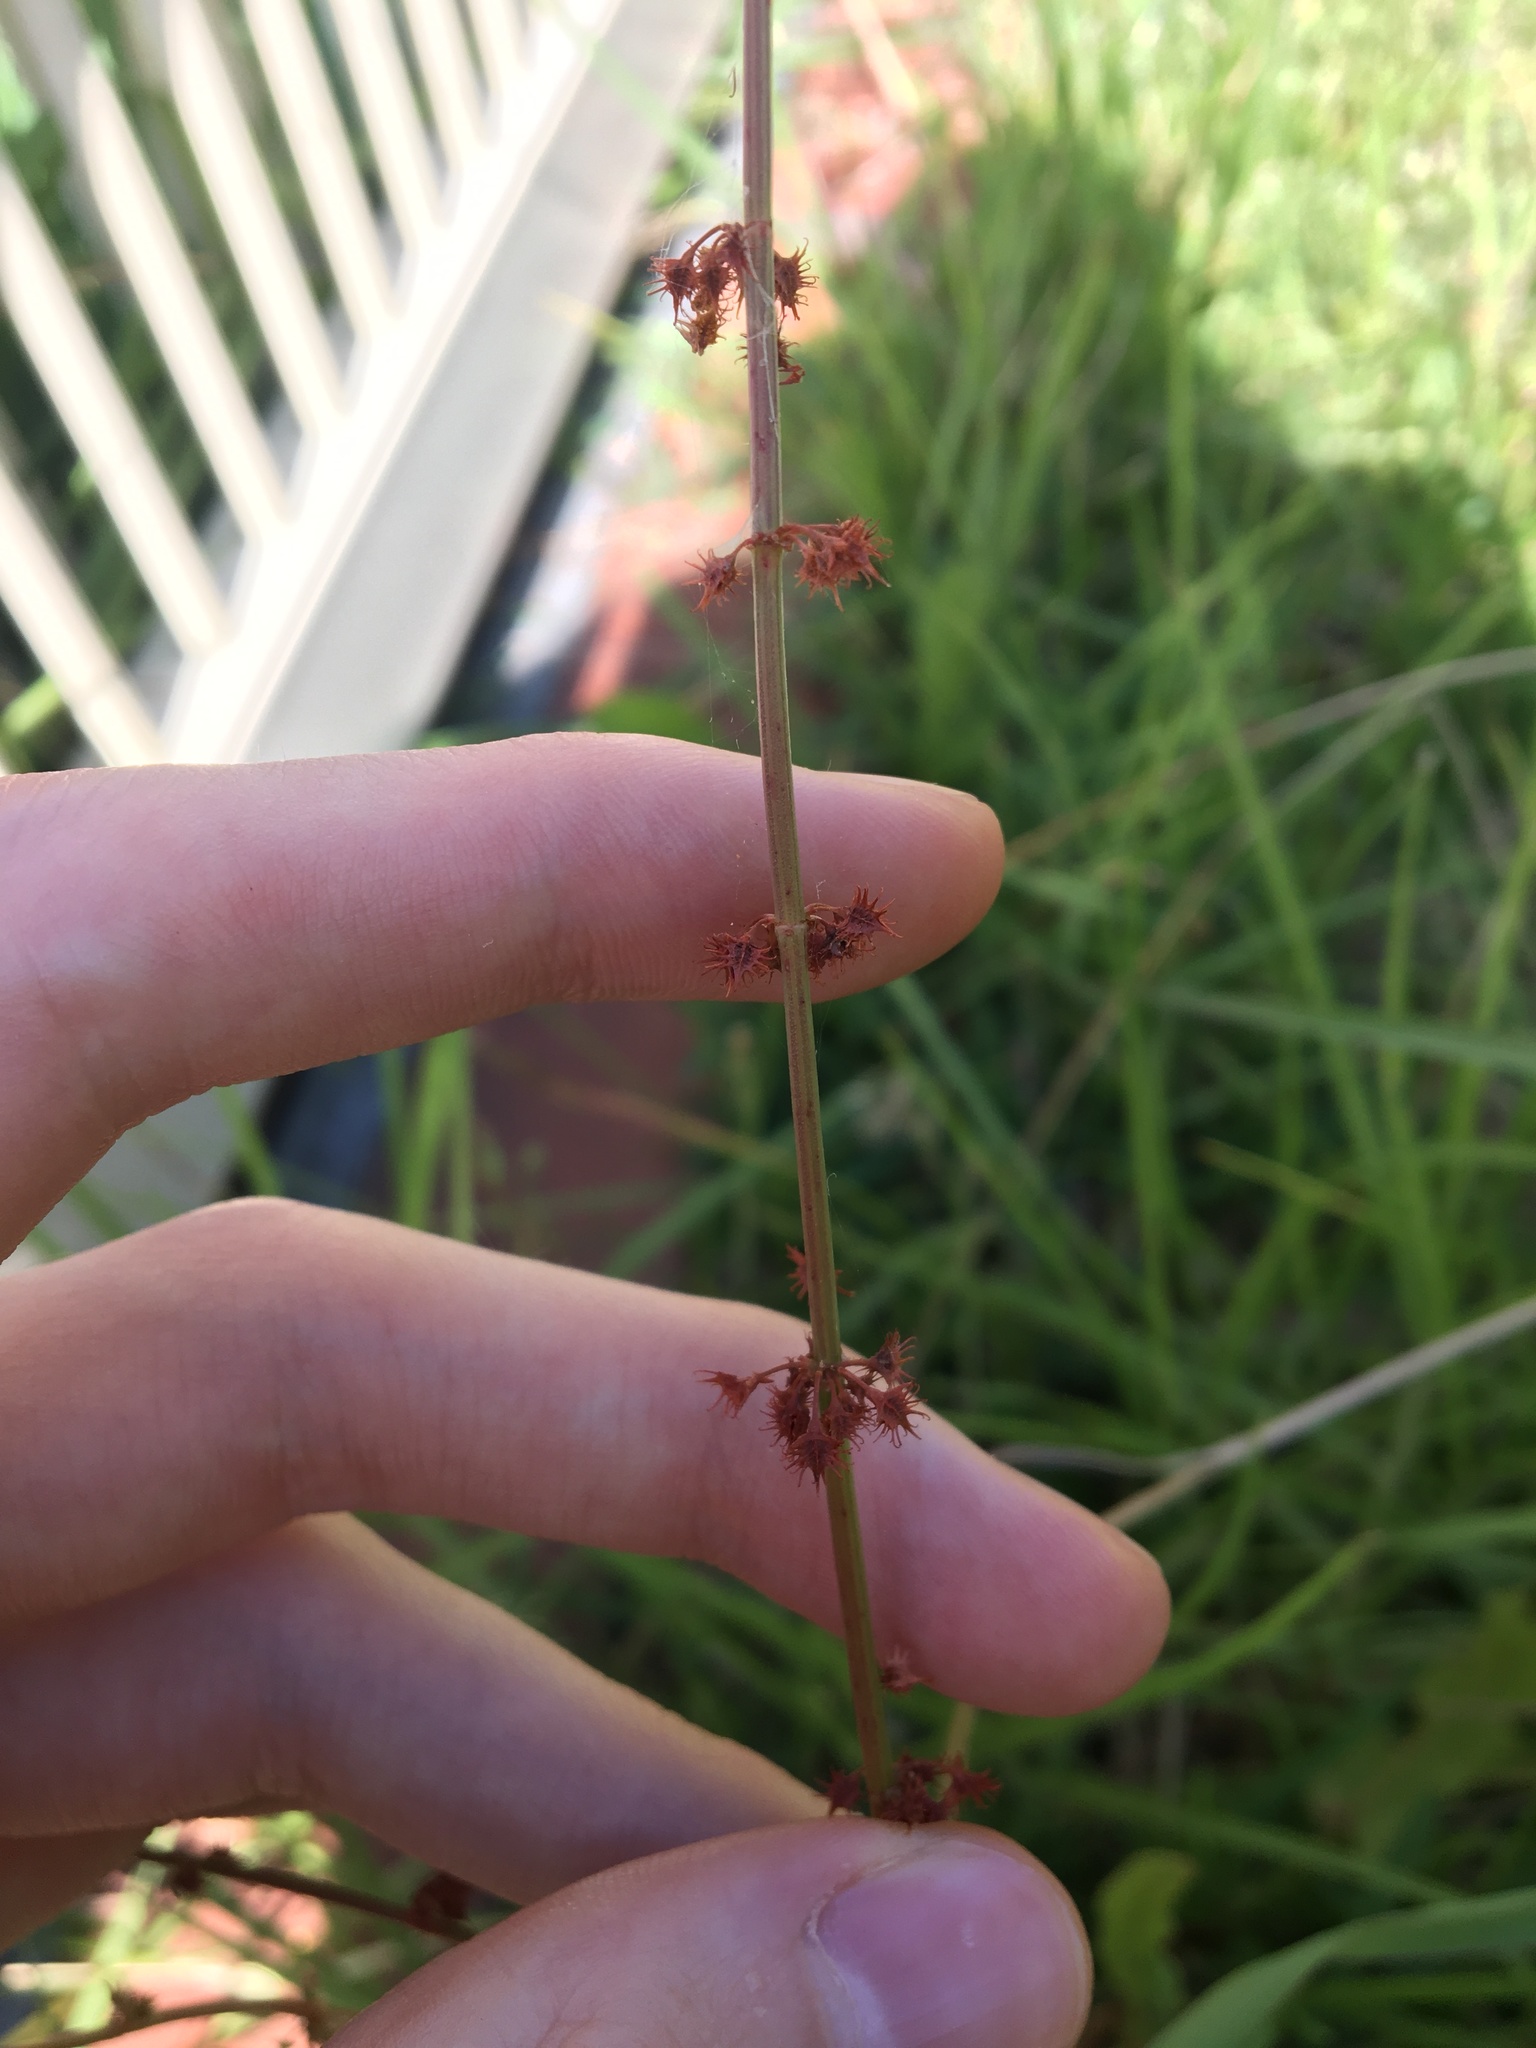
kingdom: Plantae
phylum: Tracheophyta
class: Magnoliopsida
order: Caryophyllales
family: Polygonaceae
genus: Rumex
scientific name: Rumex brownii
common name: Hooked dock
